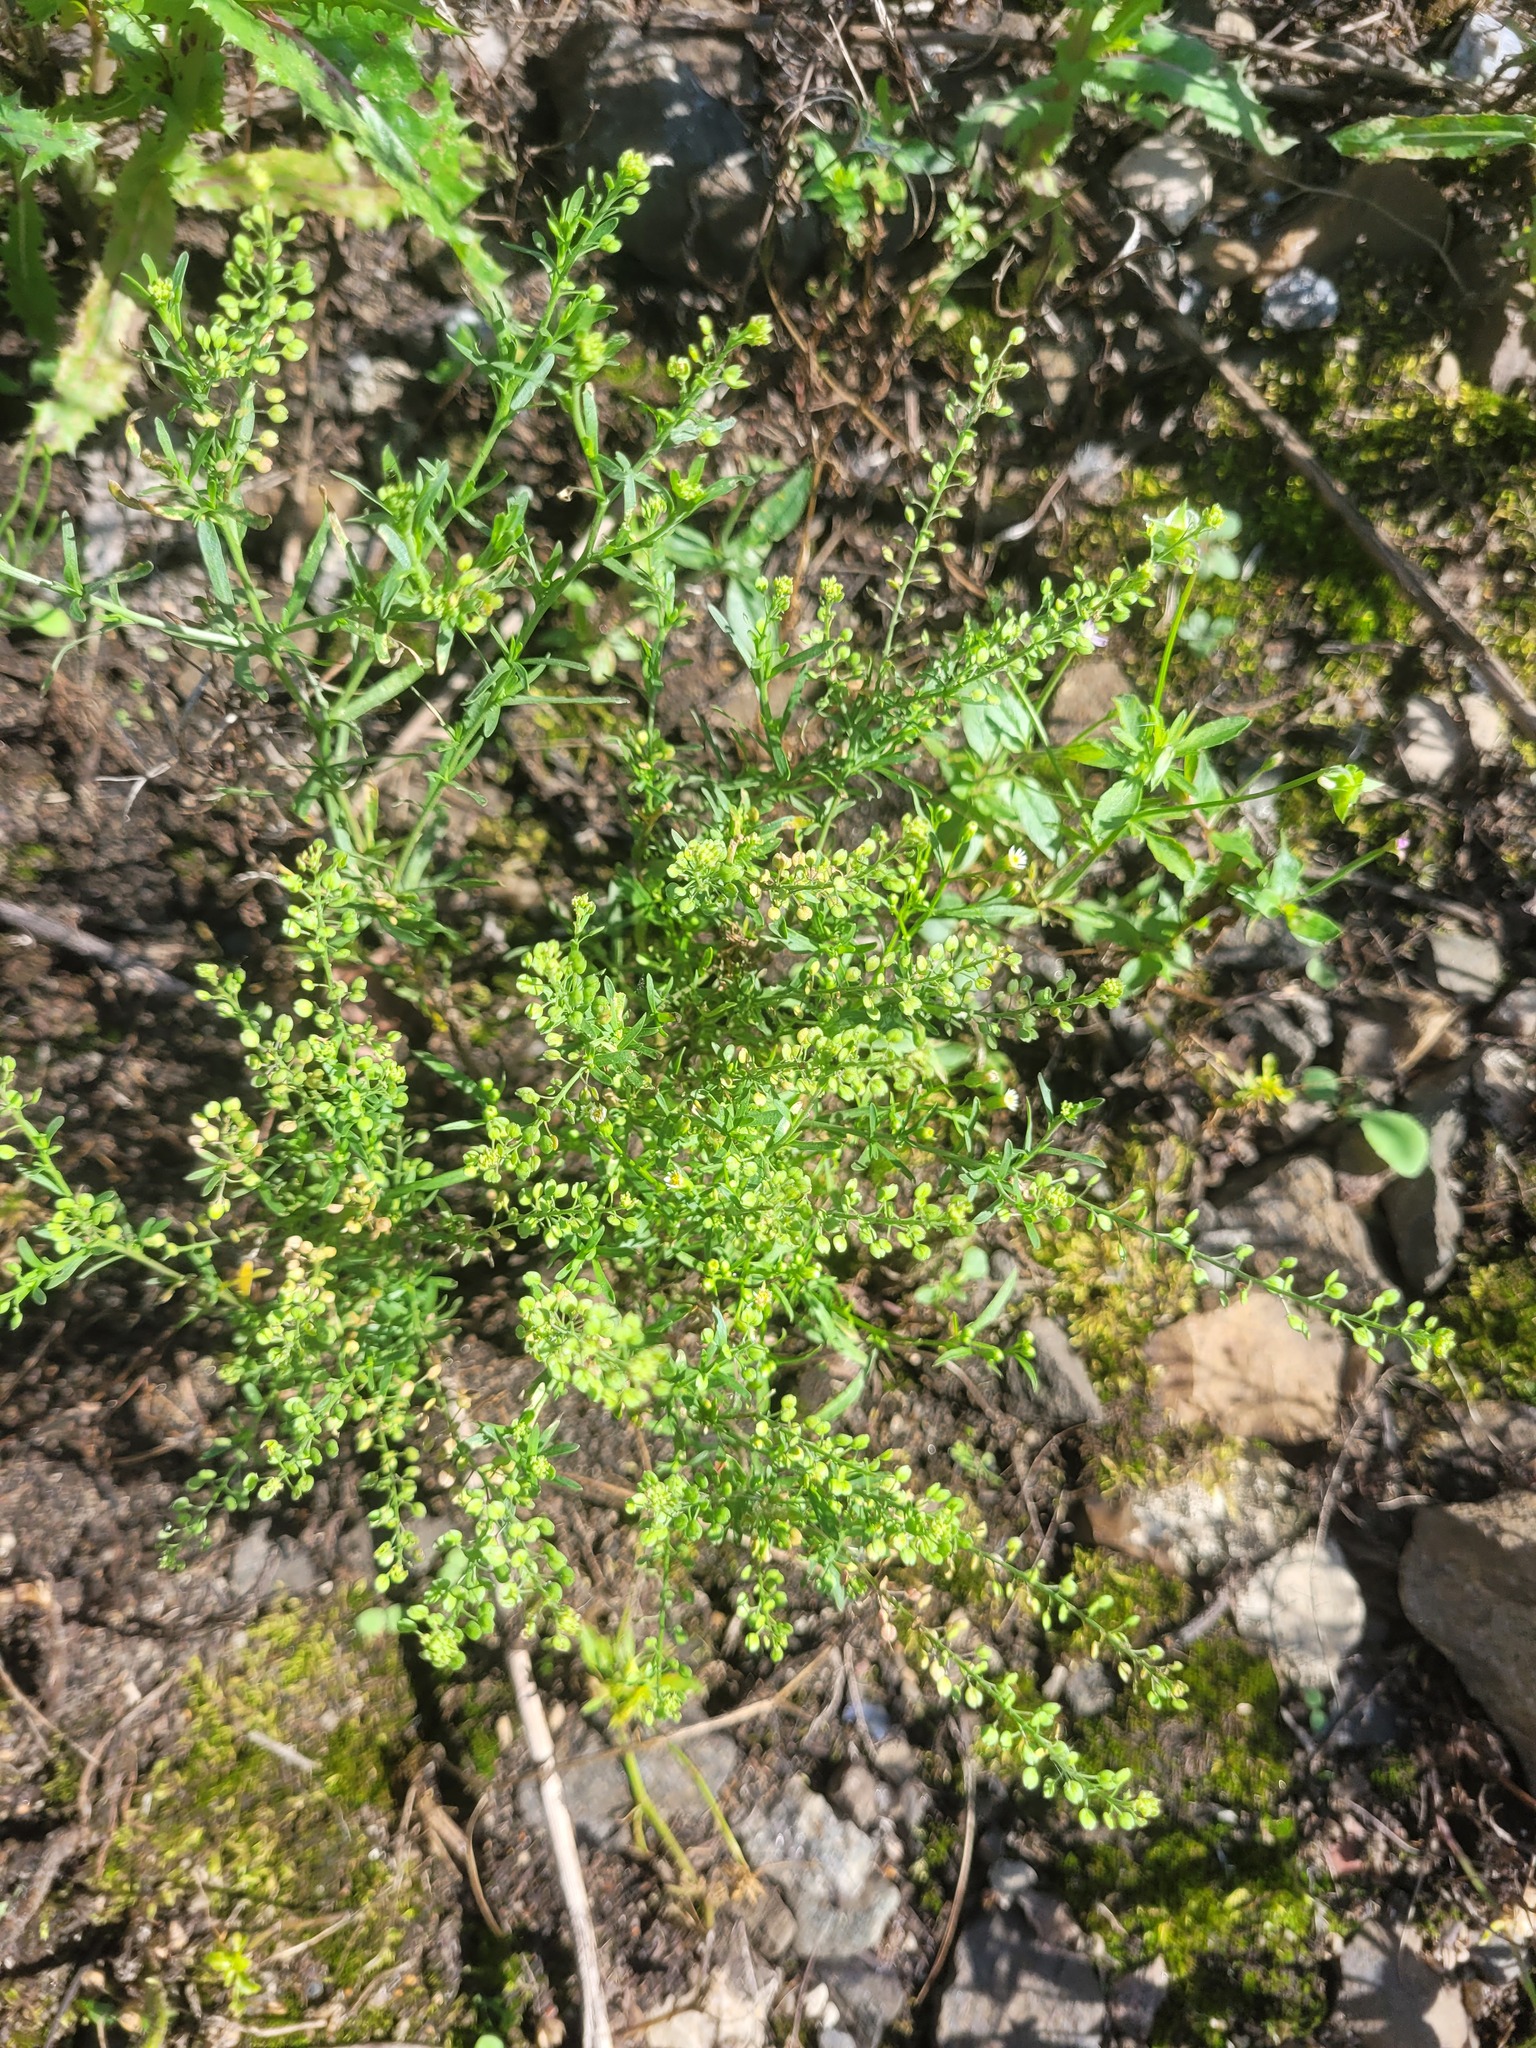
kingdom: Plantae
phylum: Tracheophyta
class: Magnoliopsida
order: Brassicales
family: Brassicaceae
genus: Lepidium
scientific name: Lepidium ruderale
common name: Narrow-leaved pepperwort
